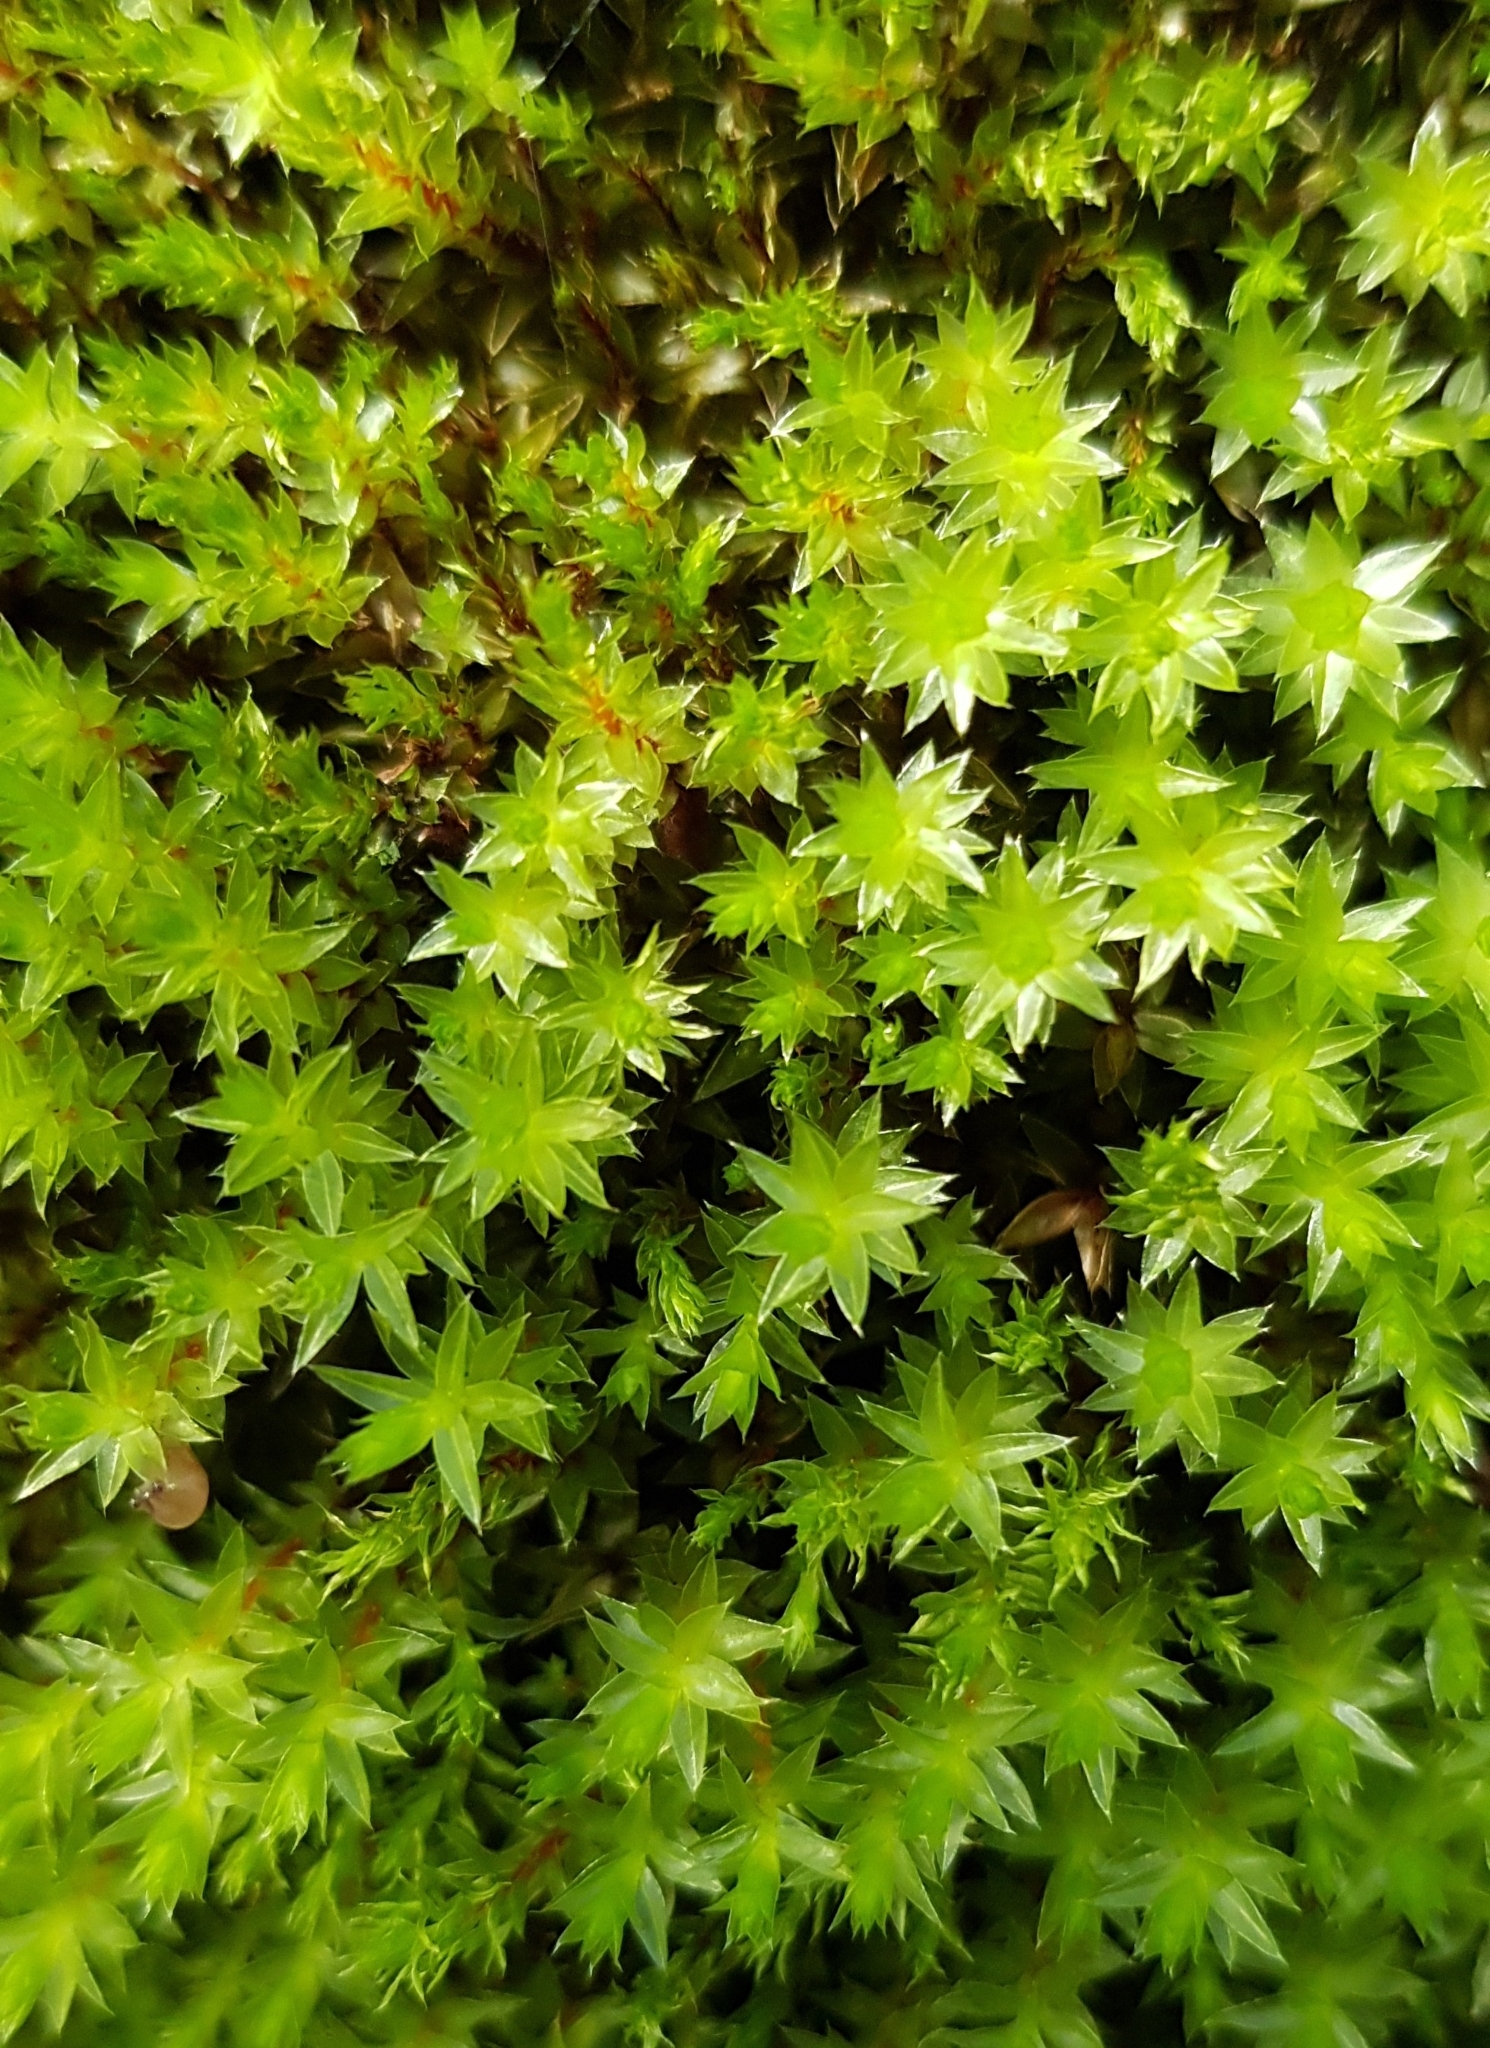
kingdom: Plantae
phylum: Bryophyta
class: Bryopsida
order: Bryales
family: Bryaceae
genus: Ptychostomum
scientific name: Ptychostomum pseudotriquetrum
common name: Long-leaved thread moss
